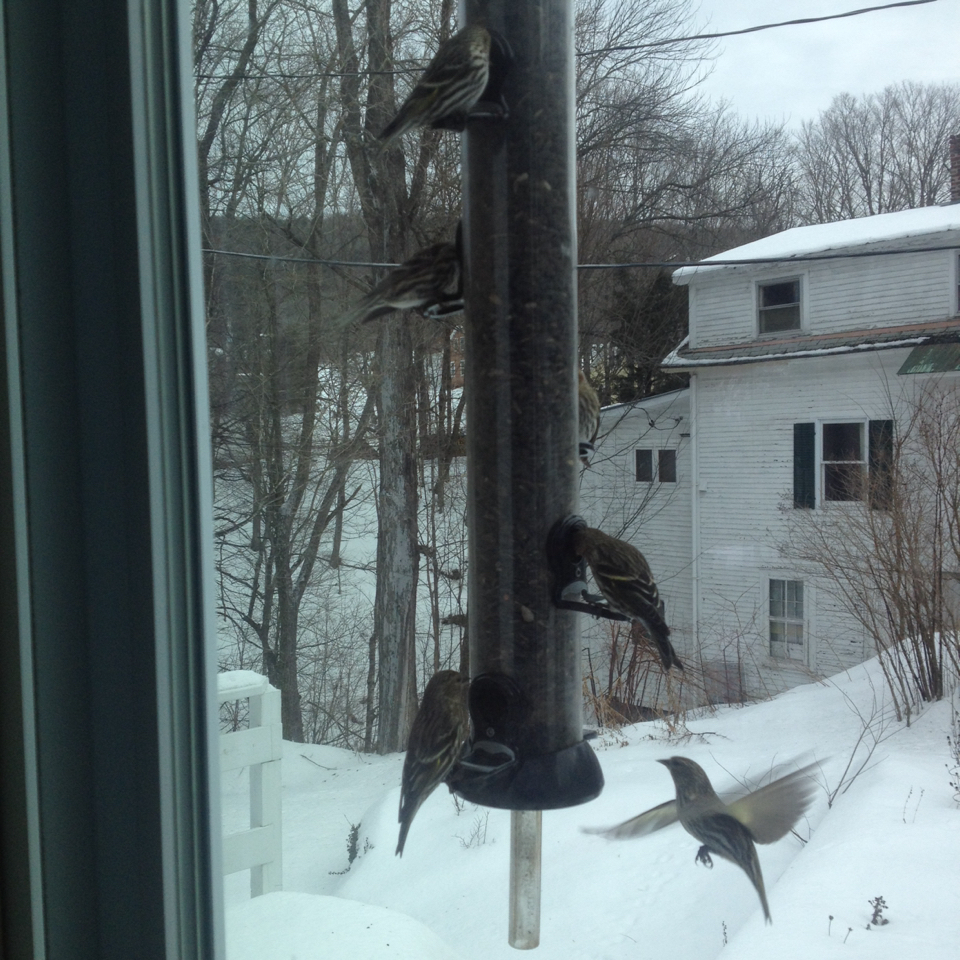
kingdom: Animalia
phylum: Chordata
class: Aves
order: Passeriformes
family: Fringillidae
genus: Spinus
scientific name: Spinus pinus
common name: Pine siskin
